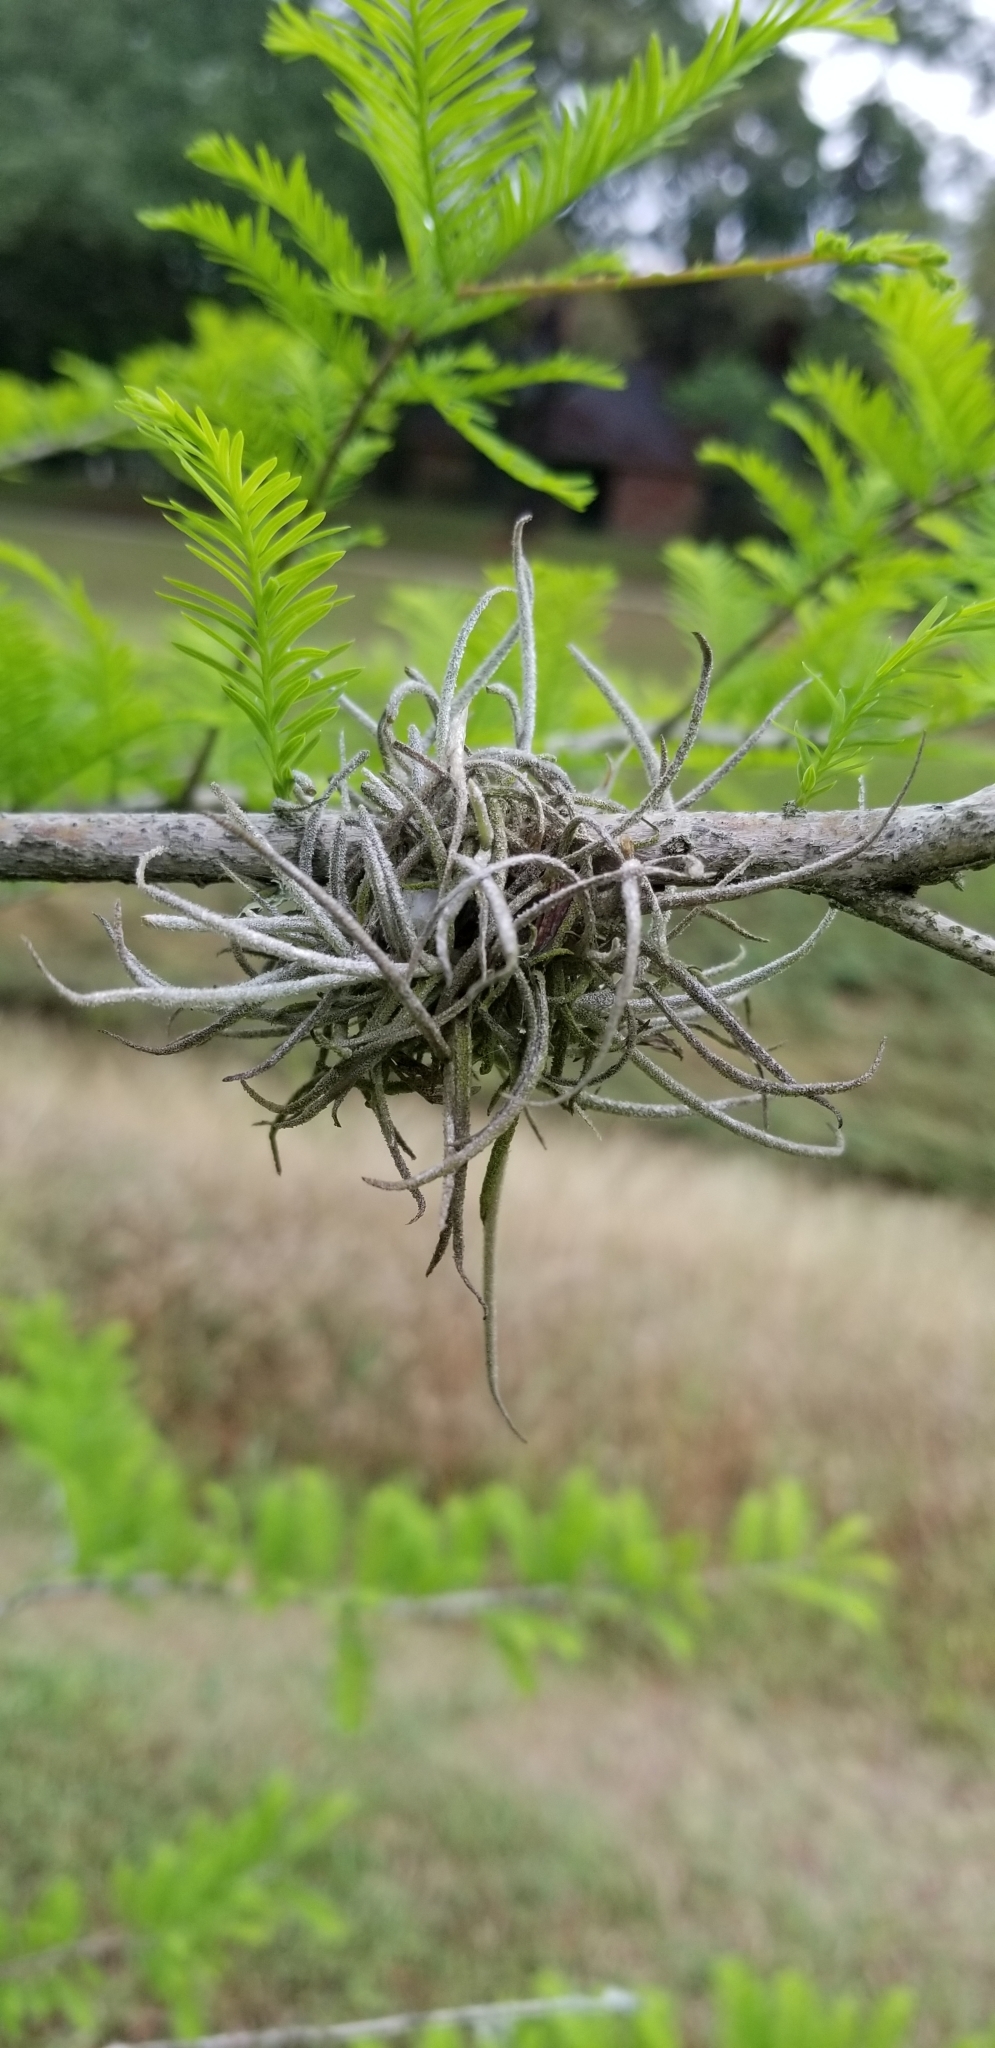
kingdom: Plantae
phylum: Tracheophyta
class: Liliopsida
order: Poales
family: Bromeliaceae
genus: Tillandsia
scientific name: Tillandsia recurvata
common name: Small ballmoss
